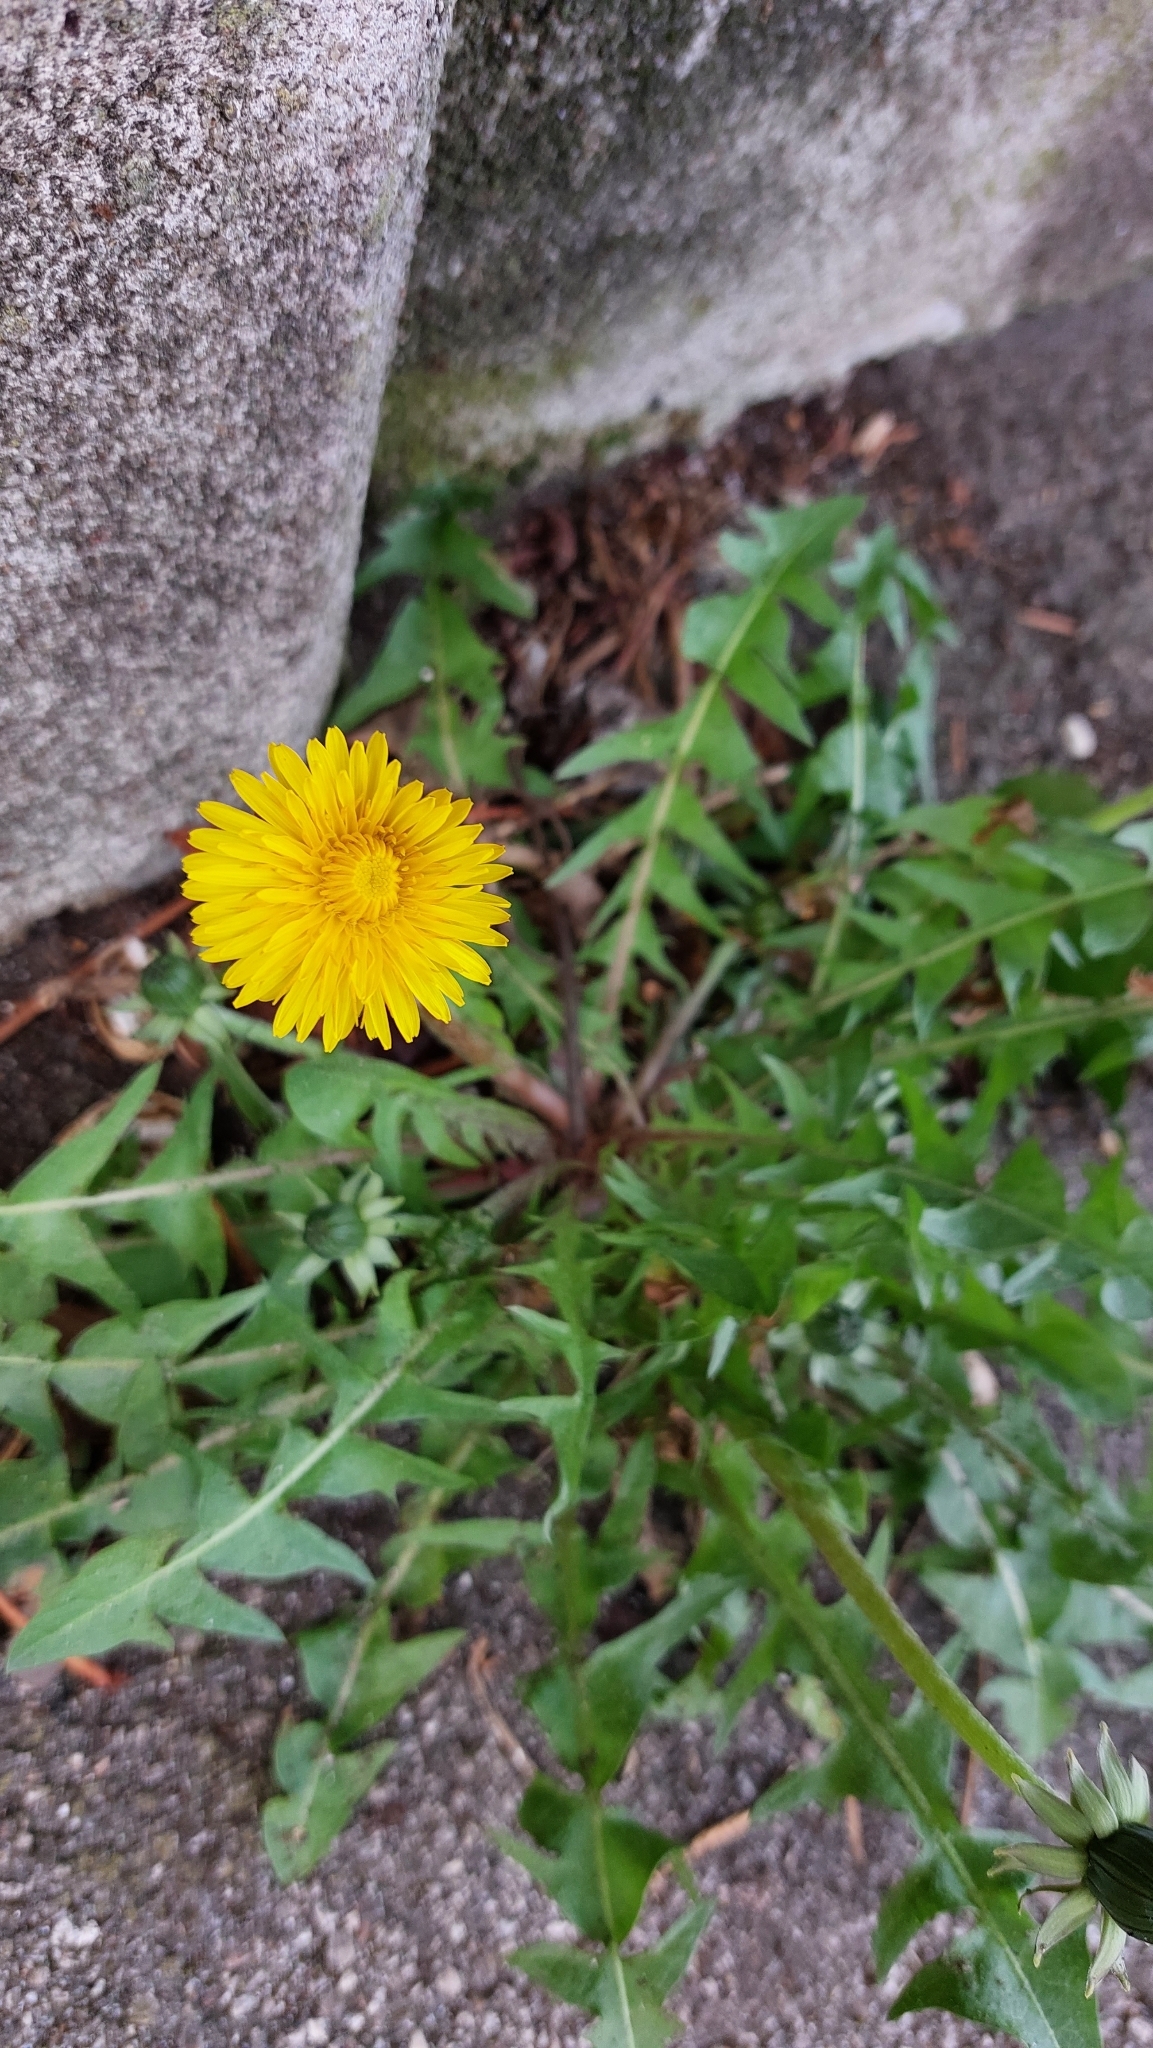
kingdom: Plantae
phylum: Tracheophyta
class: Magnoliopsida
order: Asterales
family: Asteraceae
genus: Taraxacum
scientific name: Taraxacum
